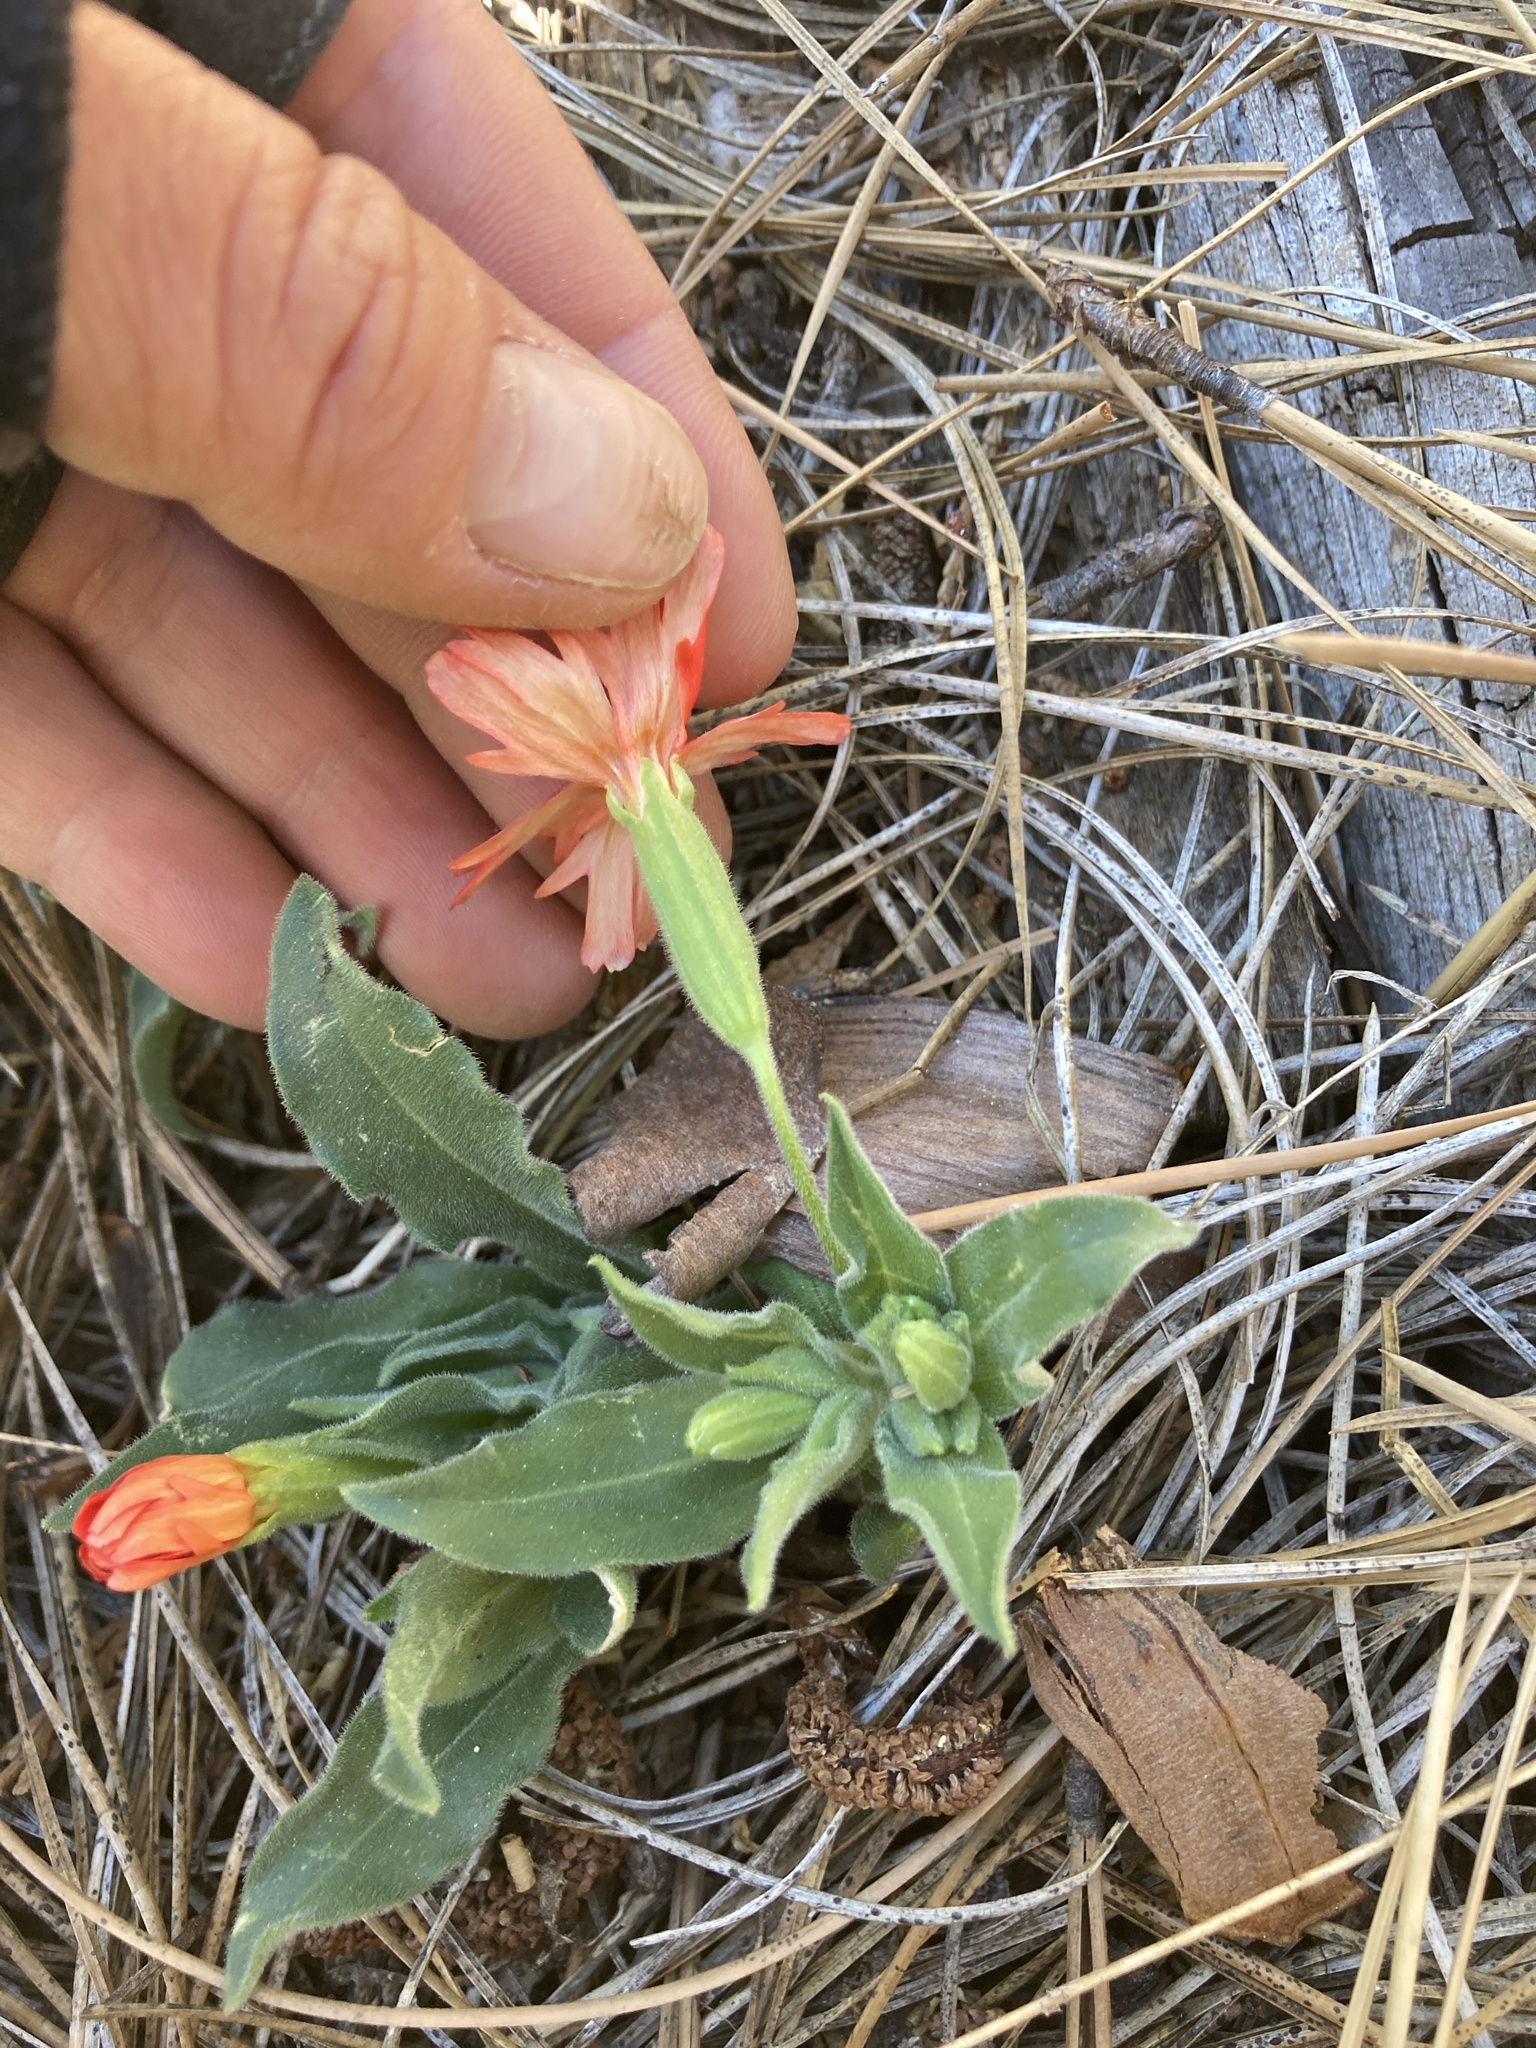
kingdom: Plantae
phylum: Tracheophyta
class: Magnoliopsida
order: Caryophyllales
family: Caryophyllaceae
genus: Silene
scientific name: Silene laciniata
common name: Indian-pink
